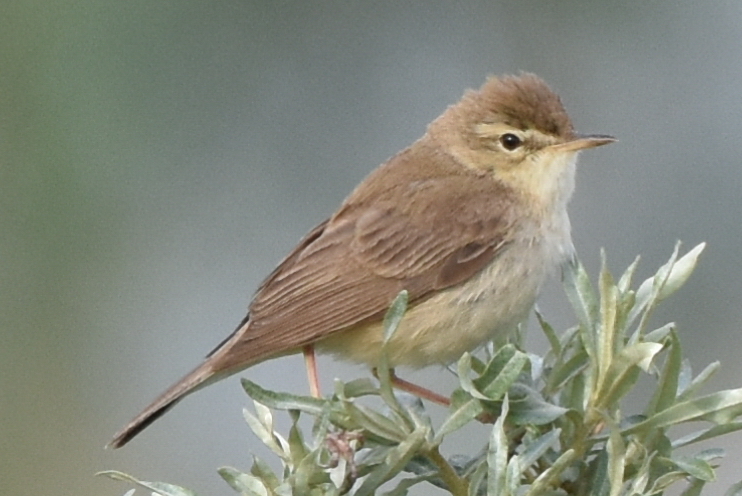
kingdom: Animalia
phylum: Chordata
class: Aves
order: Passeriformes
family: Acrocephalidae
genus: Iduna
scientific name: Iduna caligata
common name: Booted warbler
